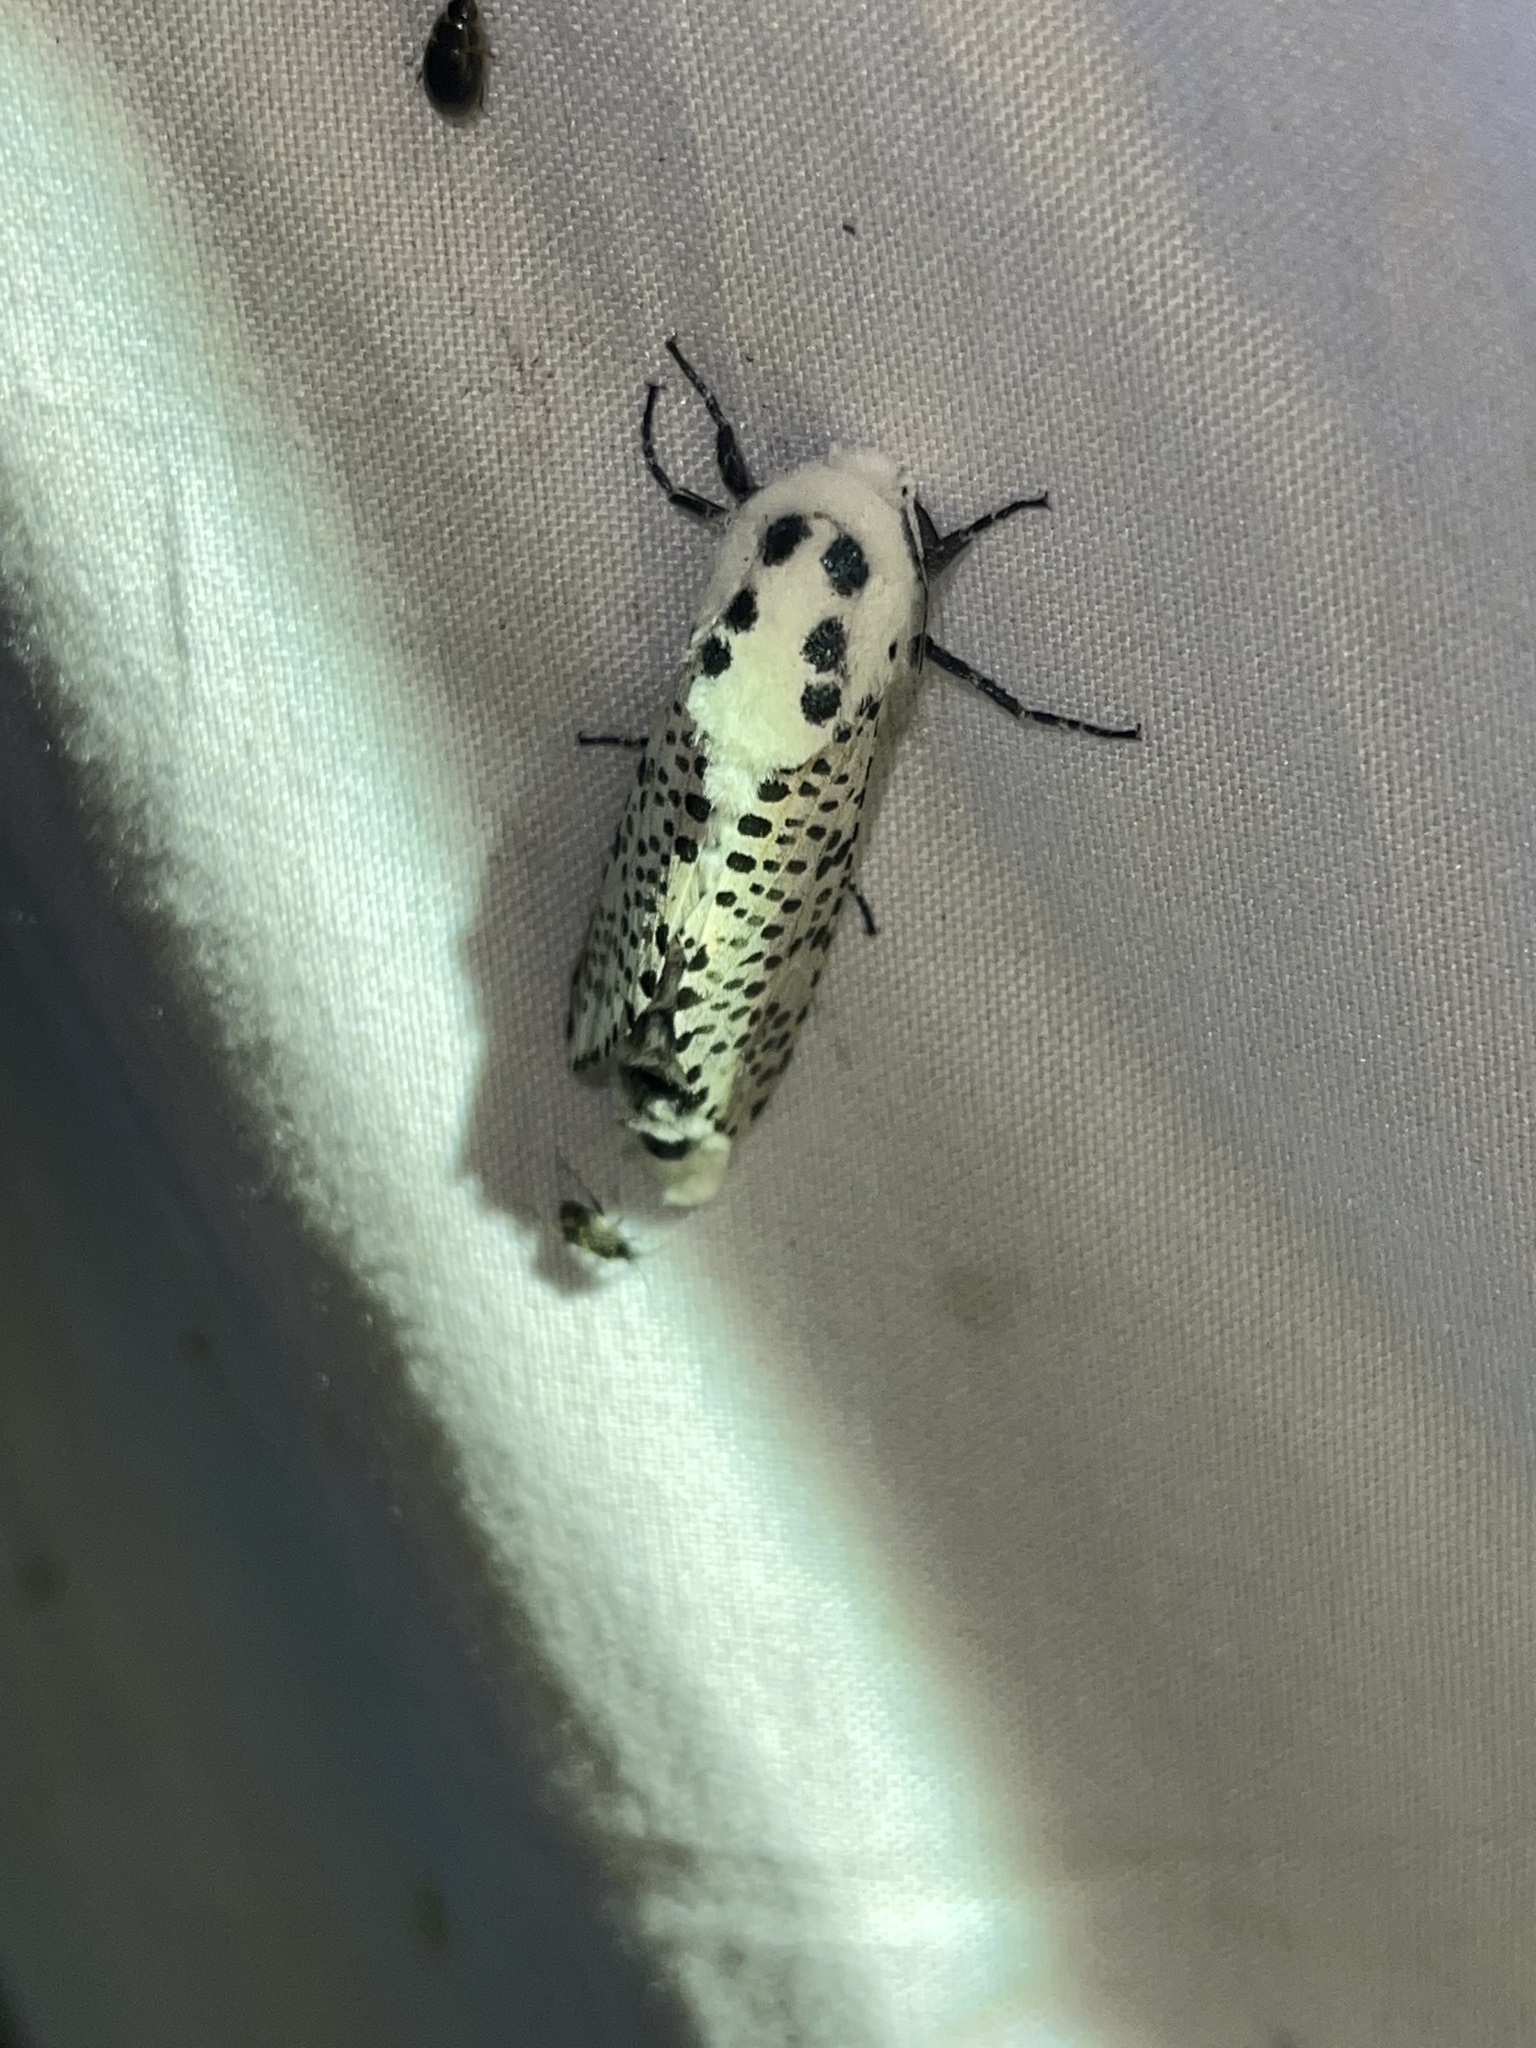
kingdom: Animalia
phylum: Arthropoda
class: Insecta
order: Lepidoptera
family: Cossidae
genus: Zeuzera
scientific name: Zeuzera pyrina
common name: Leopard moth
